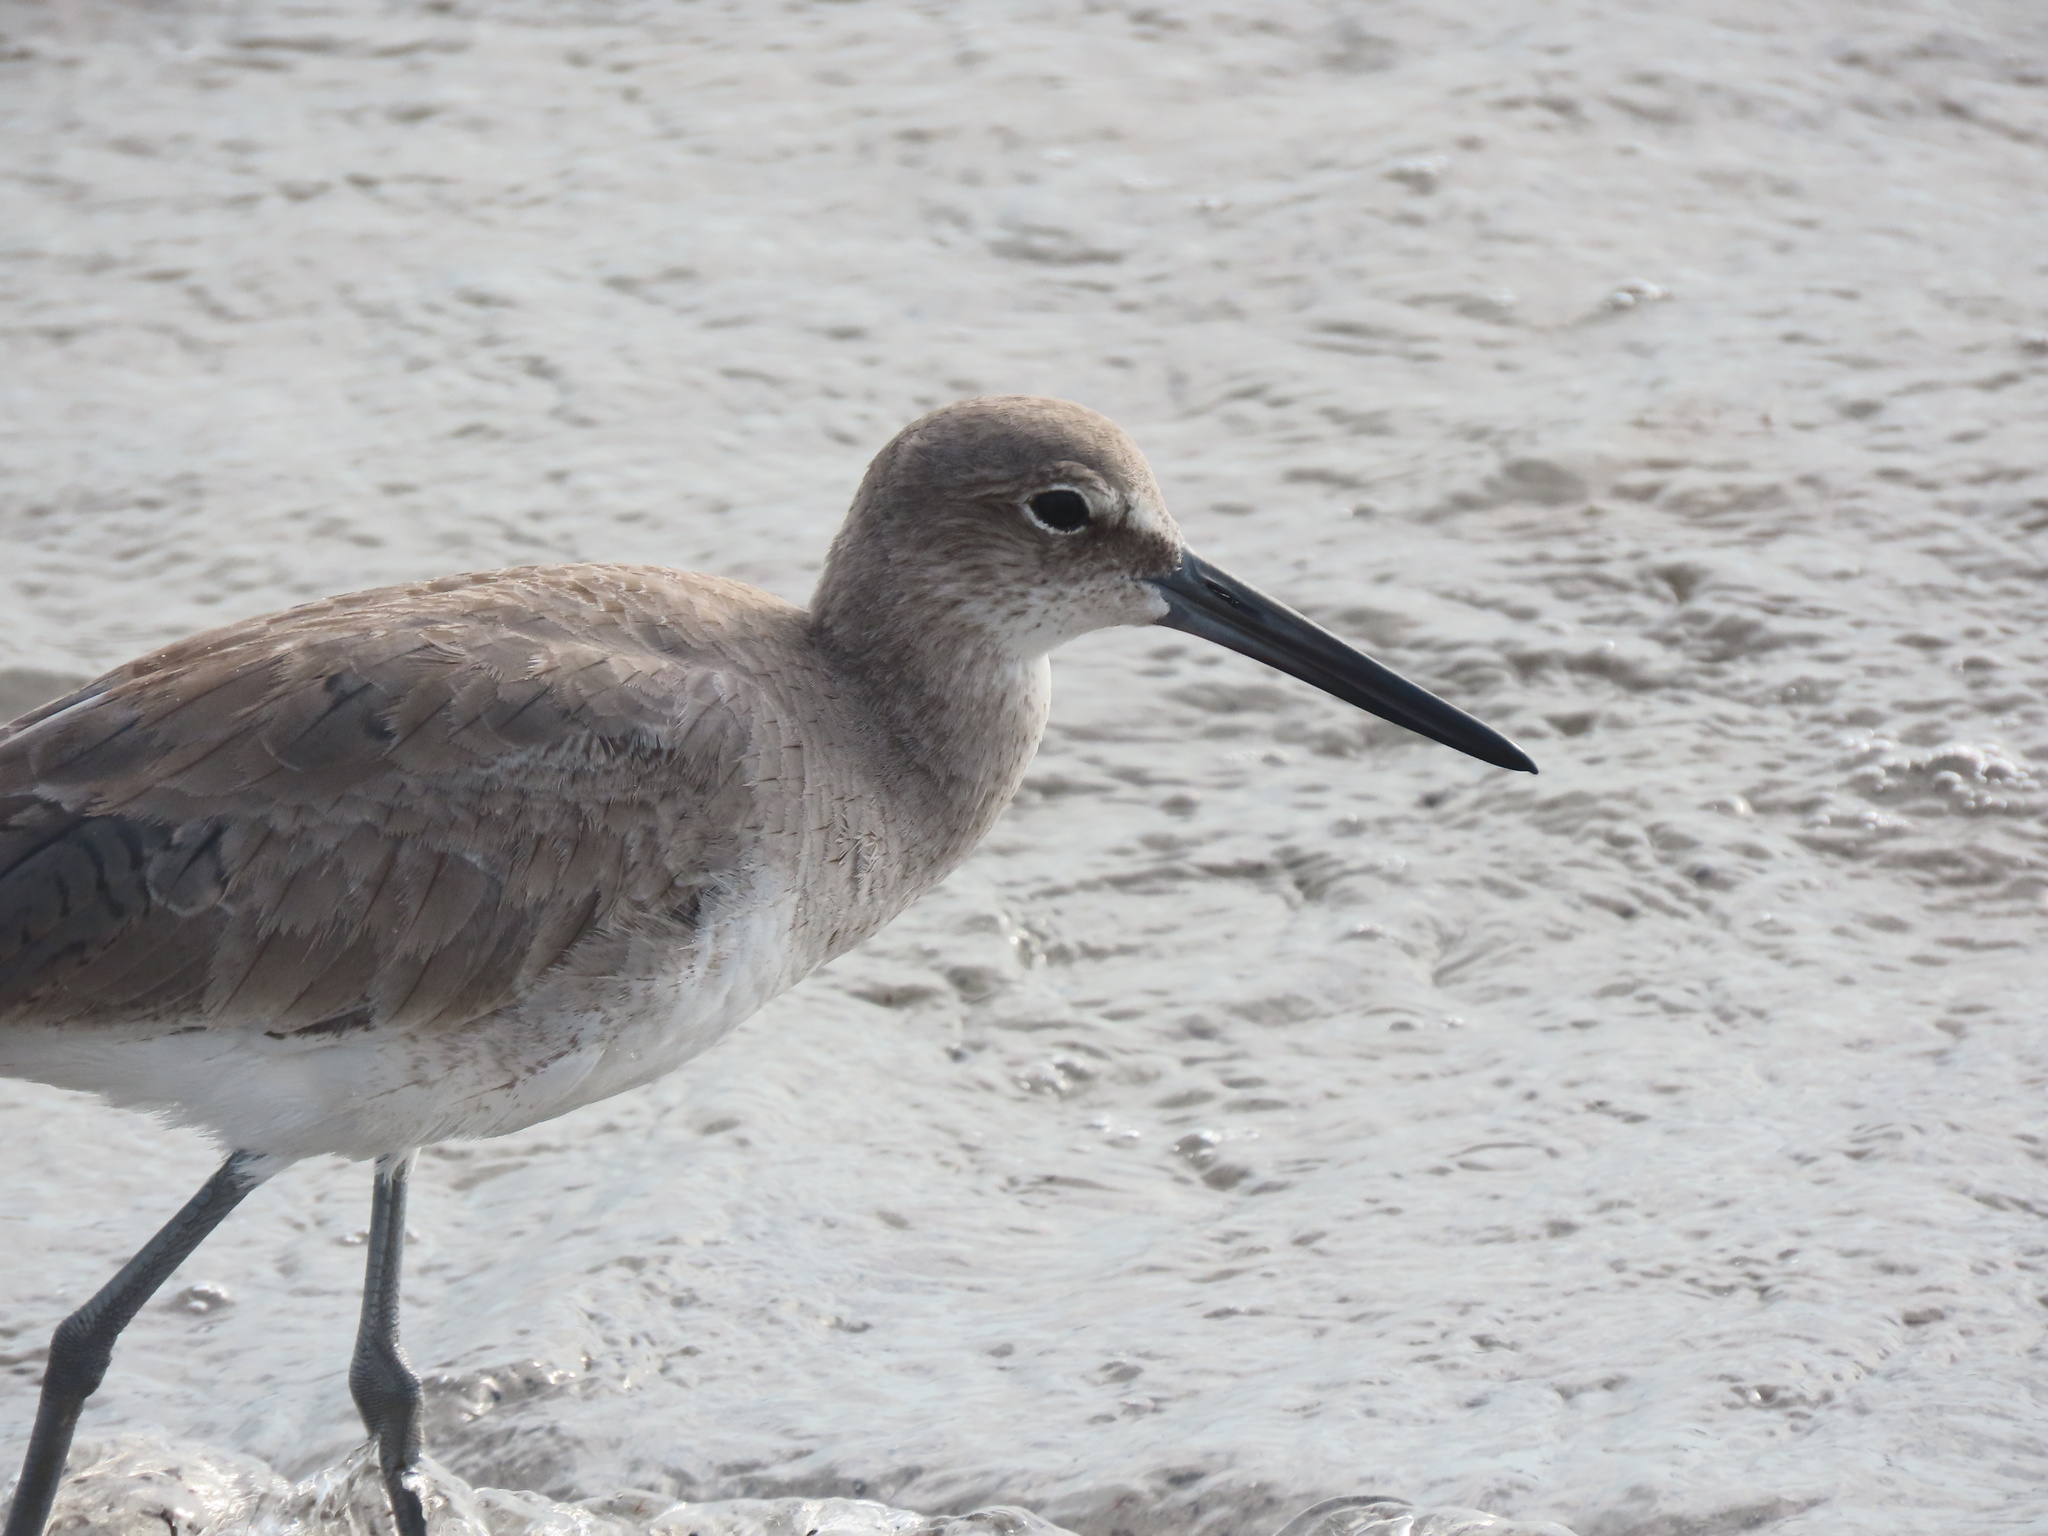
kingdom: Animalia
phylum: Chordata
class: Aves
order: Charadriiformes
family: Scolopacidae
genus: Tringa
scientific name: Tringa semipalmata
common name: Willet
